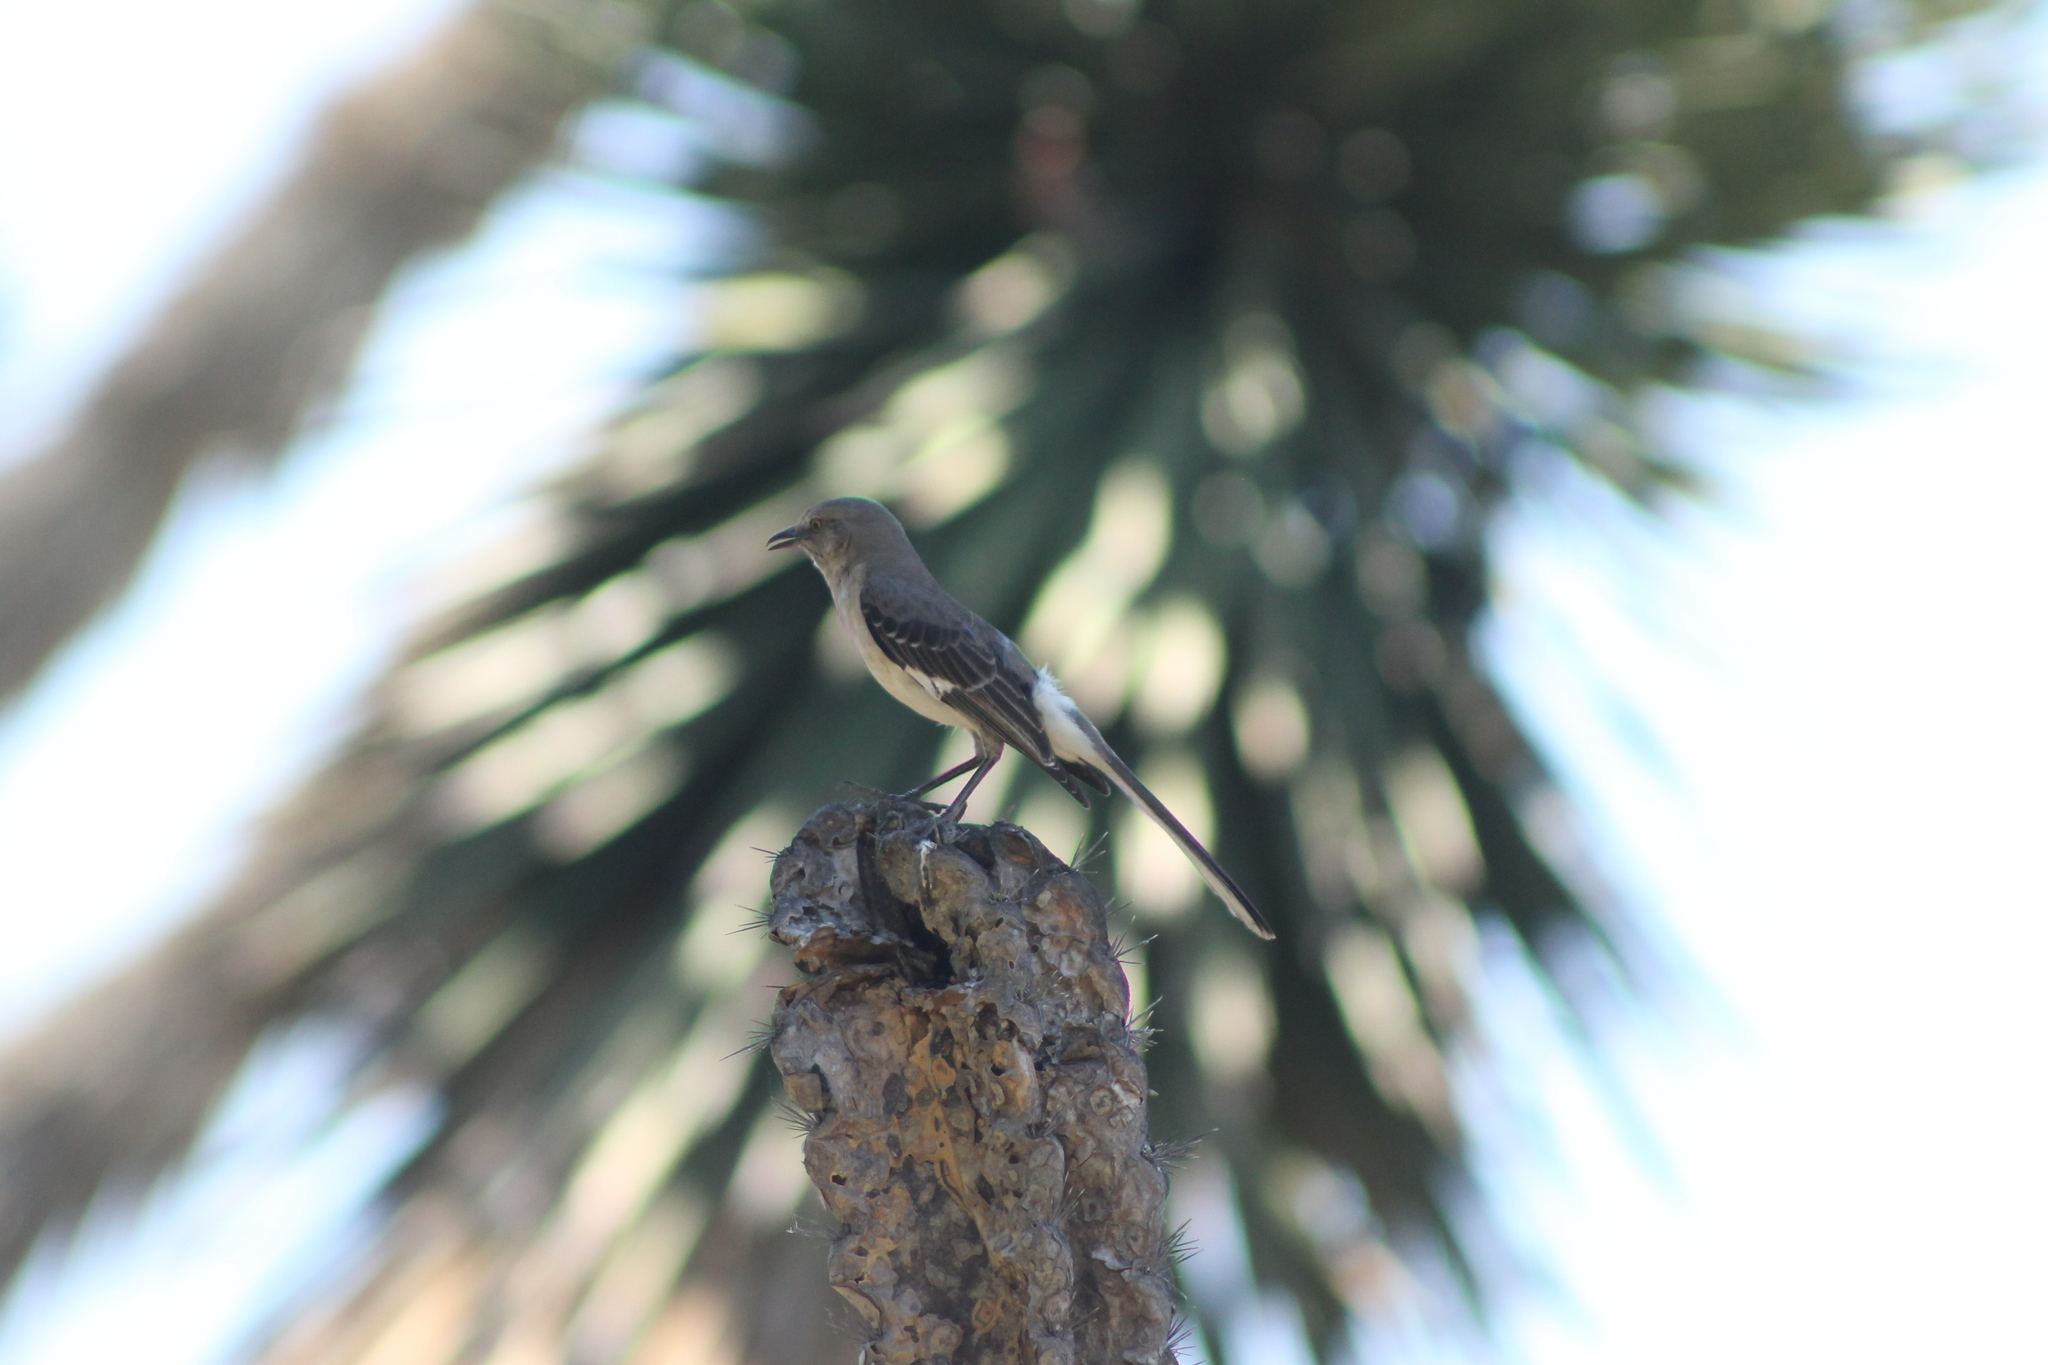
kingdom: Animalia
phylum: Chordata
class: Aves
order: Passeriformes
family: Mimidae
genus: Mimus
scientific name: Mimus polyglottos
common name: Northern mockingbird
